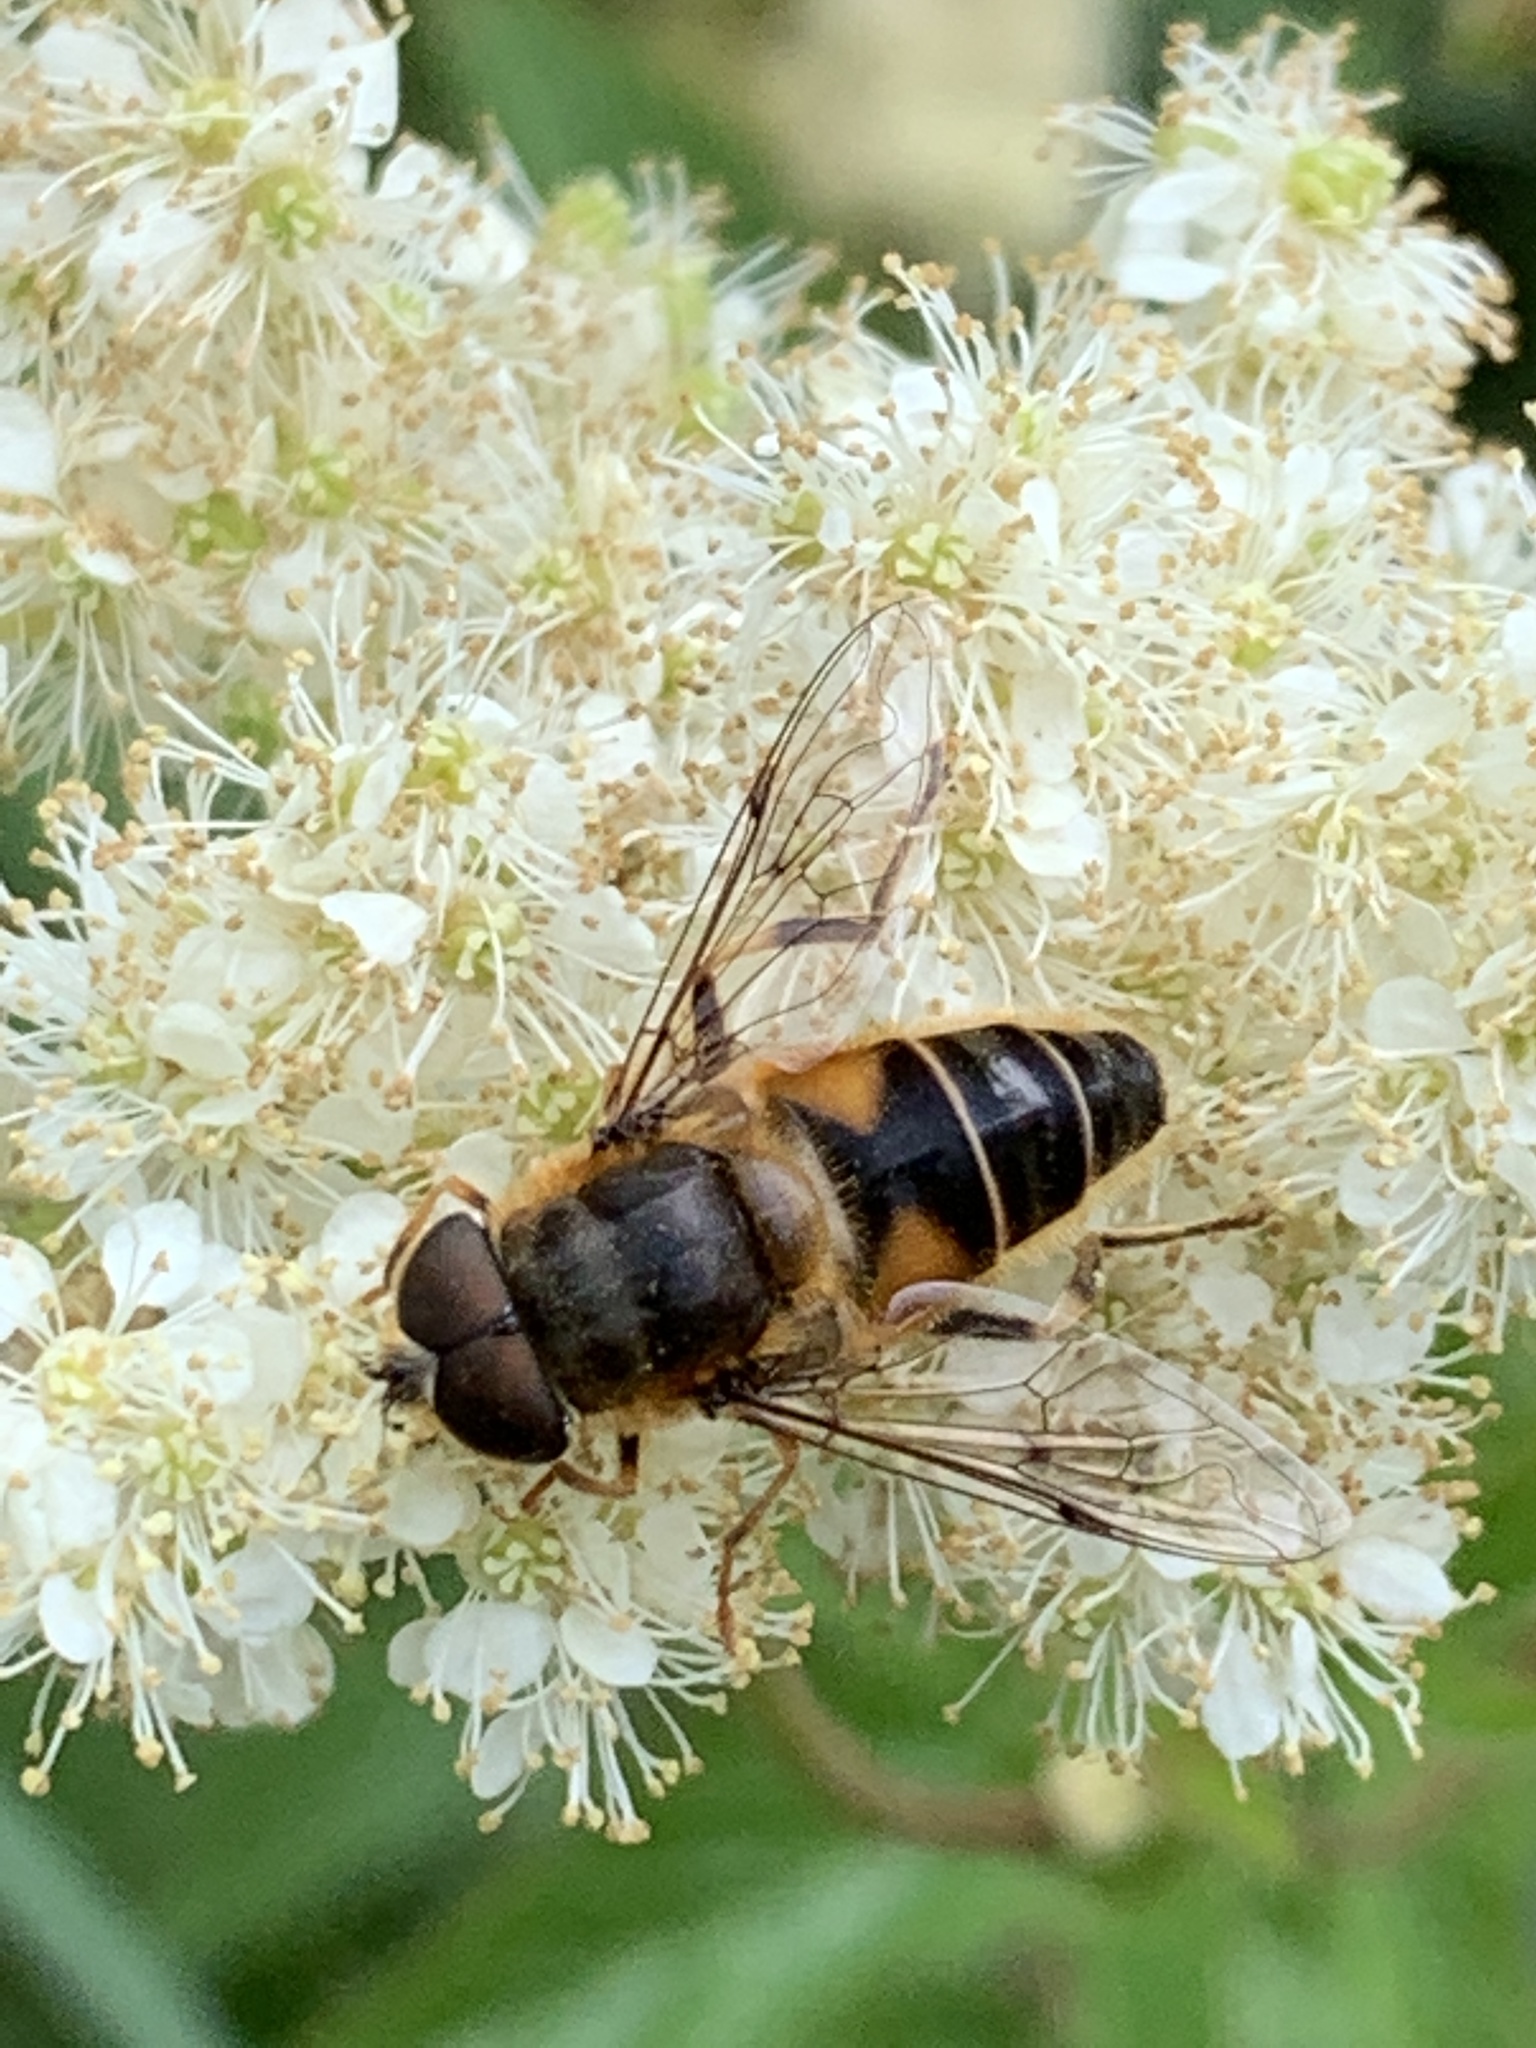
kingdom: Animalia
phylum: Arthropoda
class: Insecta
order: Diptera
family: Syrphidae
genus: Eristalis
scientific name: Eristalis pertinax
